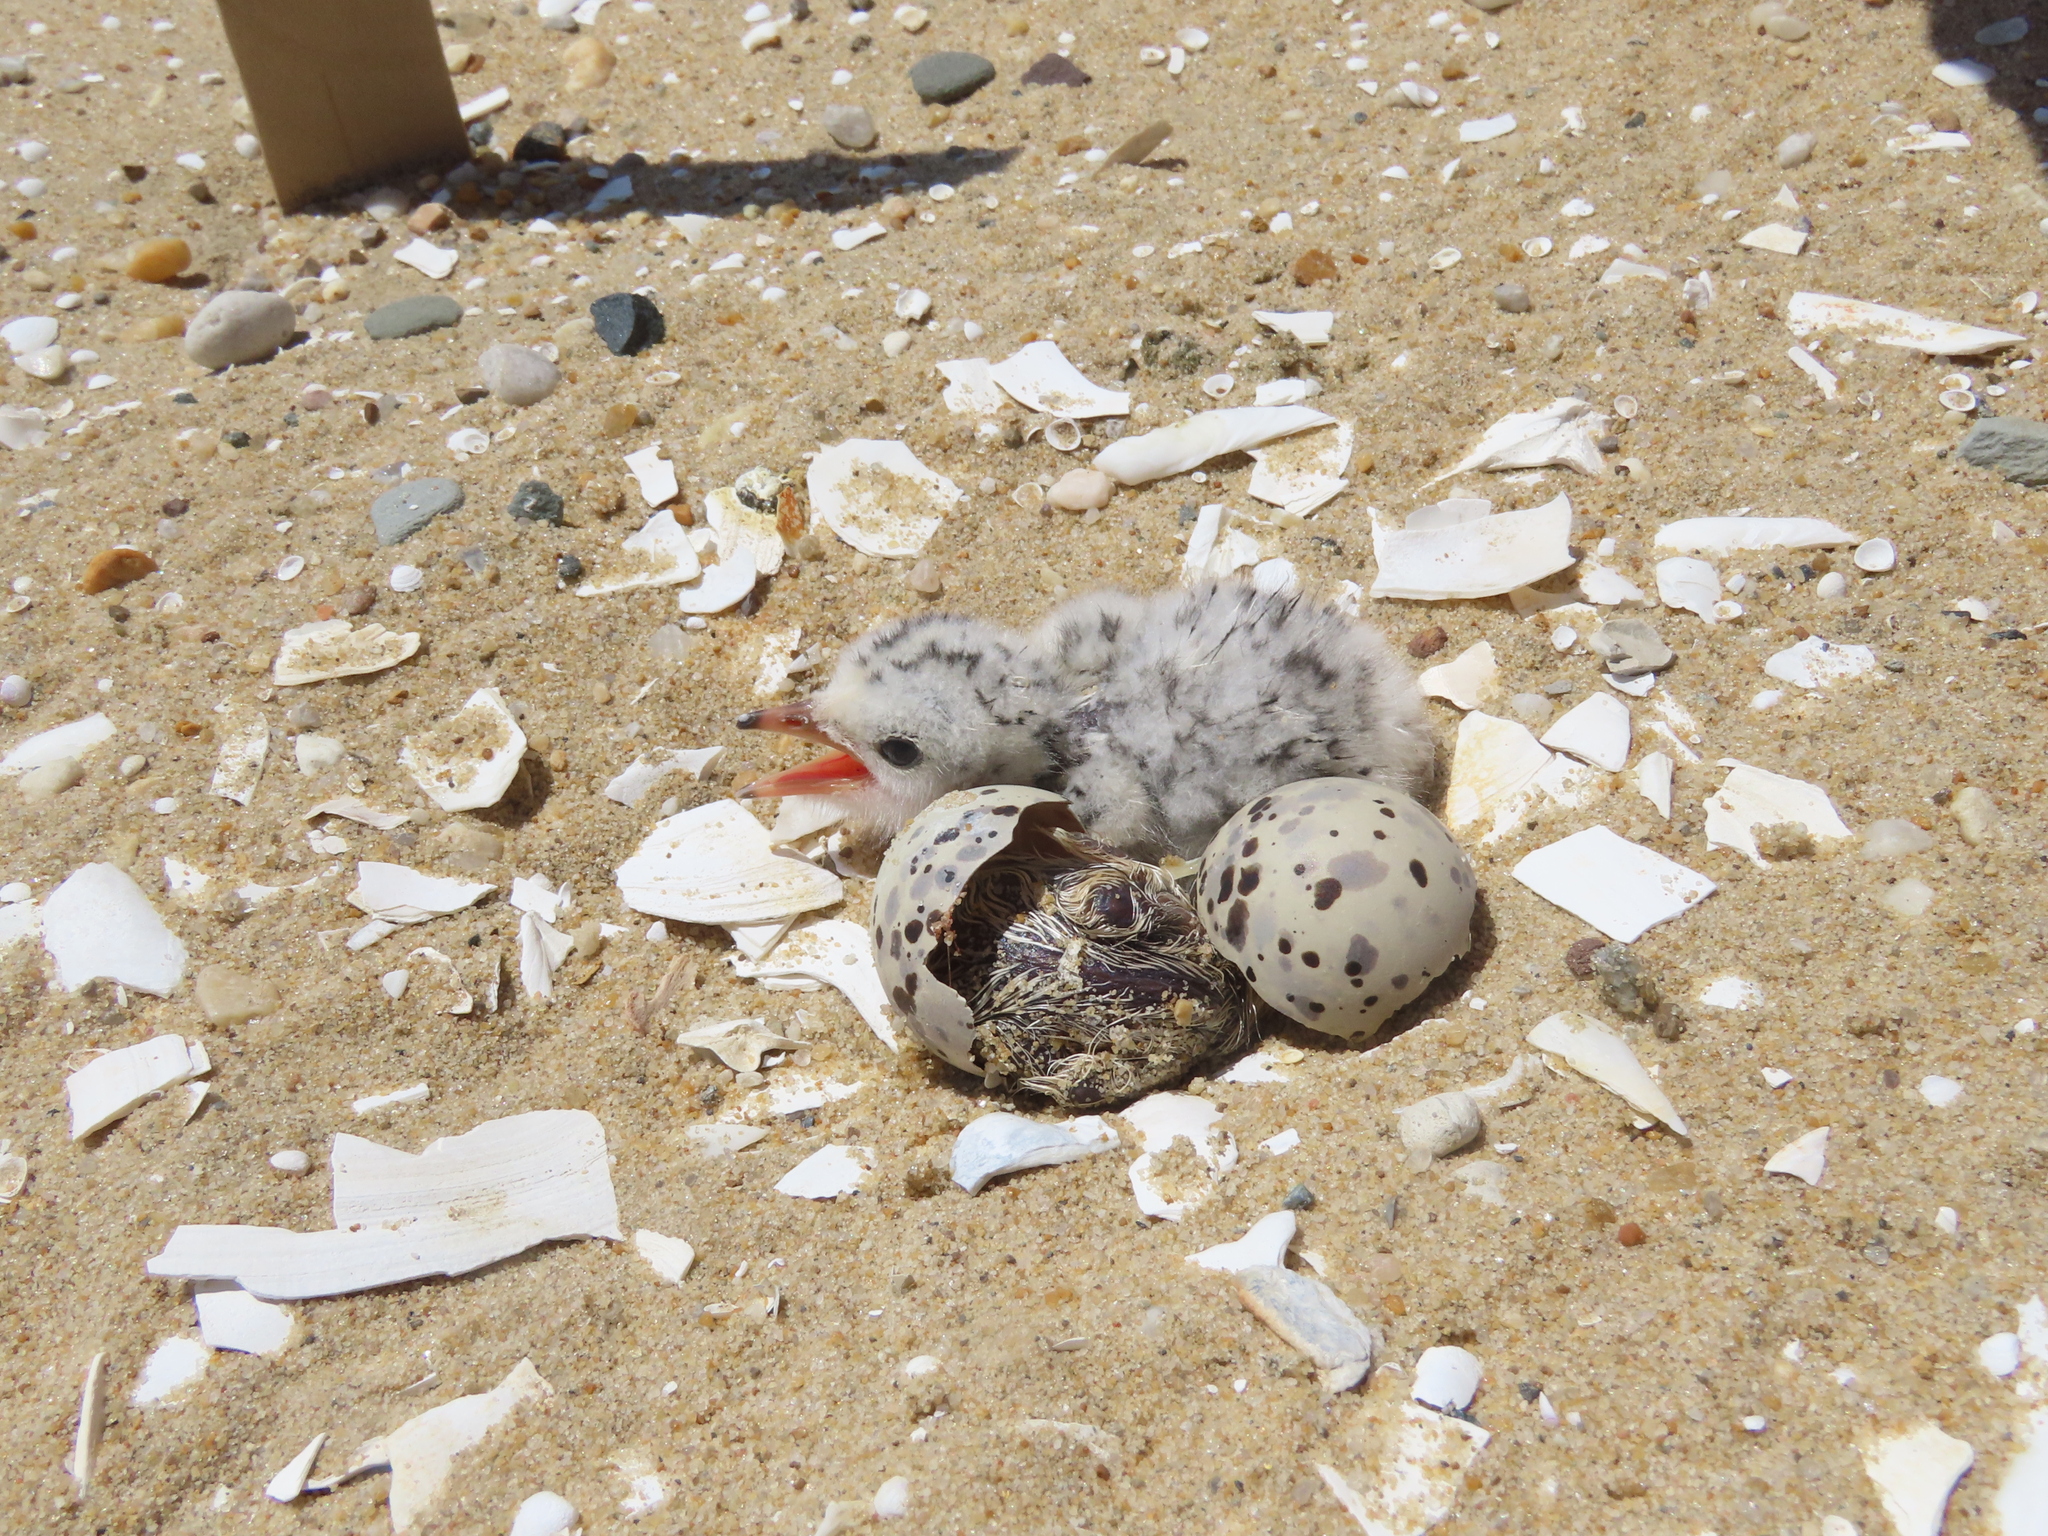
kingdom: Animalia
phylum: Chordata
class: Aves
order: Charadriiformes
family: Laridae
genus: Sternula
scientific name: Sternula antillarum
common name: Least tern
